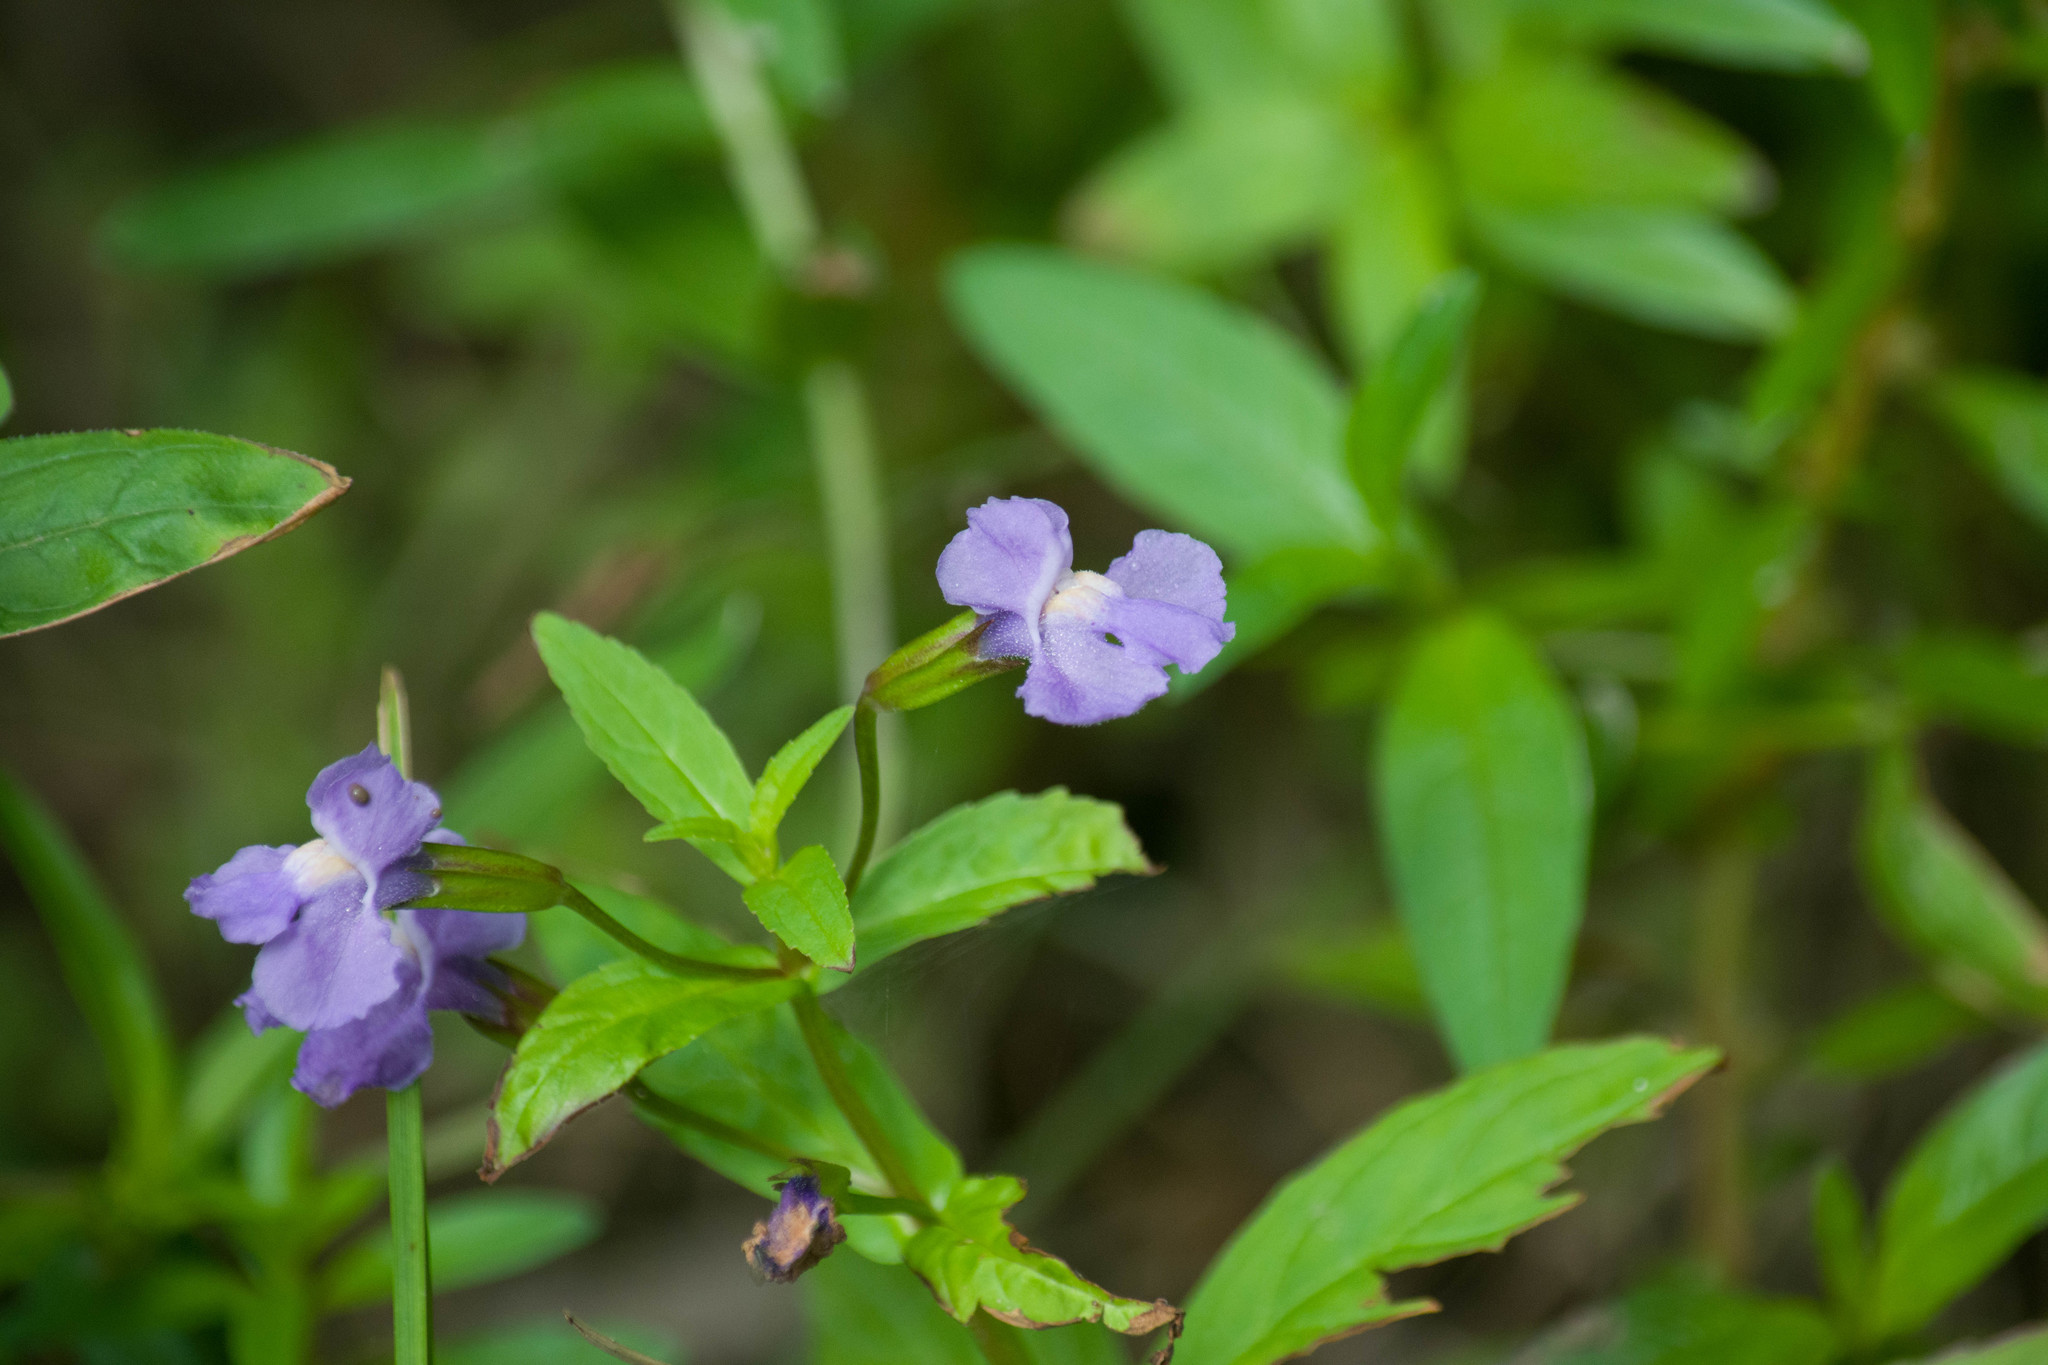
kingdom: Plantae
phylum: Tracheophyta
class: Magnoliopsida
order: Lamiales
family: Phrymaceae
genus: Mimulus
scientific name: Mimulus ringens
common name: Allegheny monkeyflower
